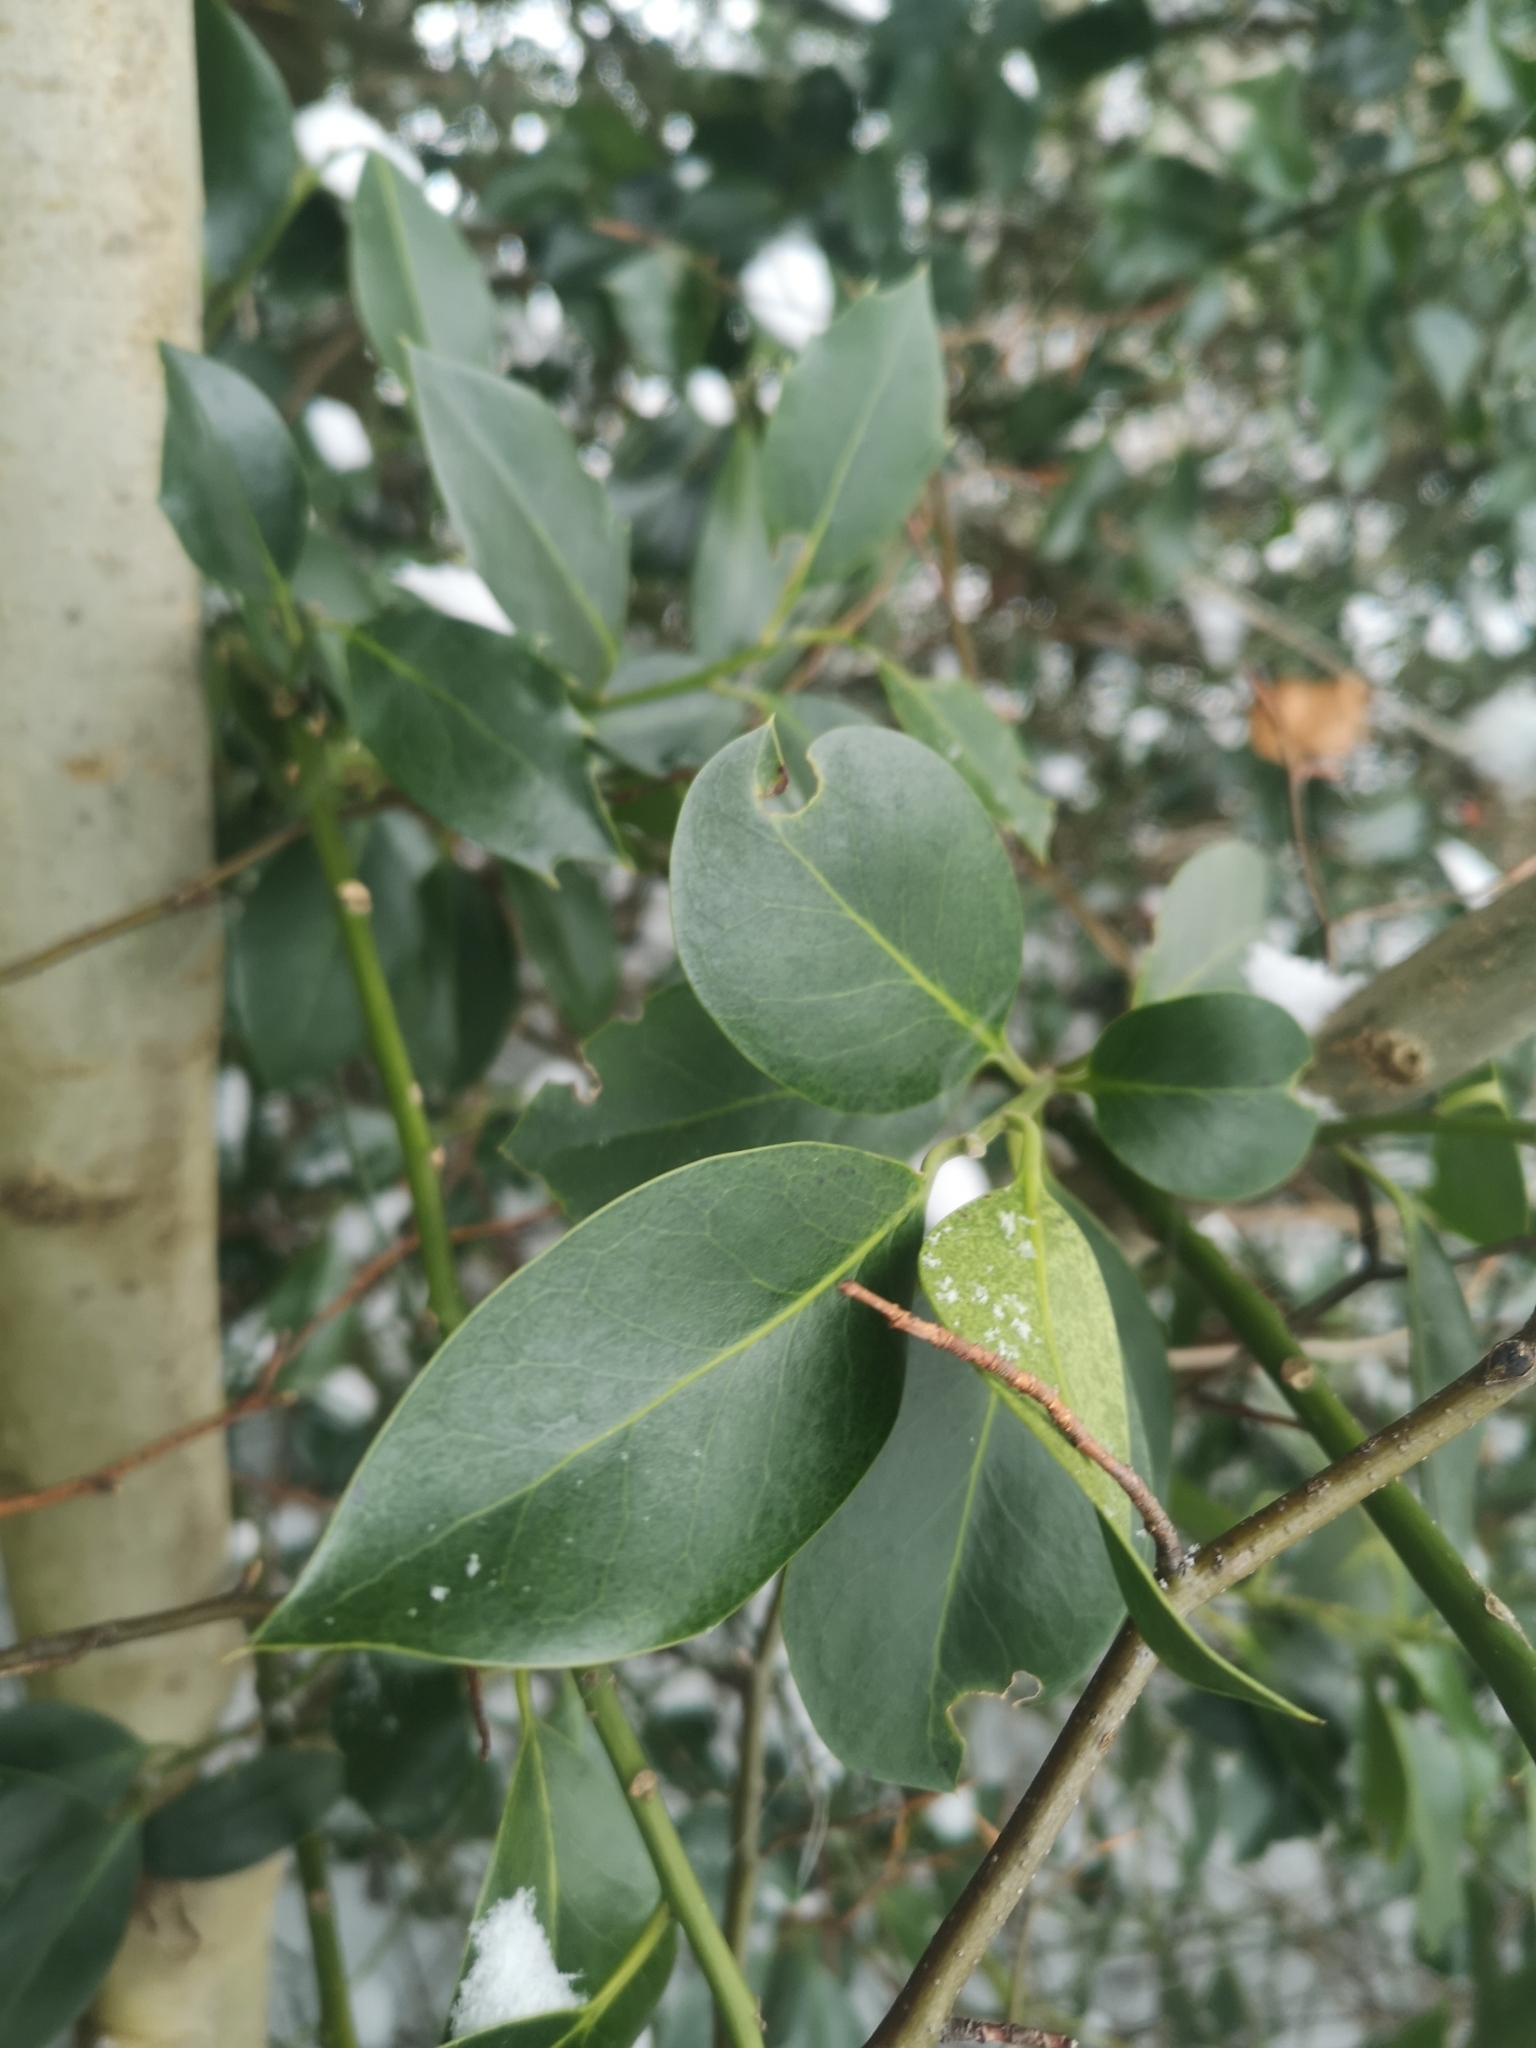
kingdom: Plantae
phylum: Tracheophyta
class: Magnoliopsida
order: Aquifoliales
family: Aquifoliaceae
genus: Ilex
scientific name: Ilex aquifolium
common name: English holly
